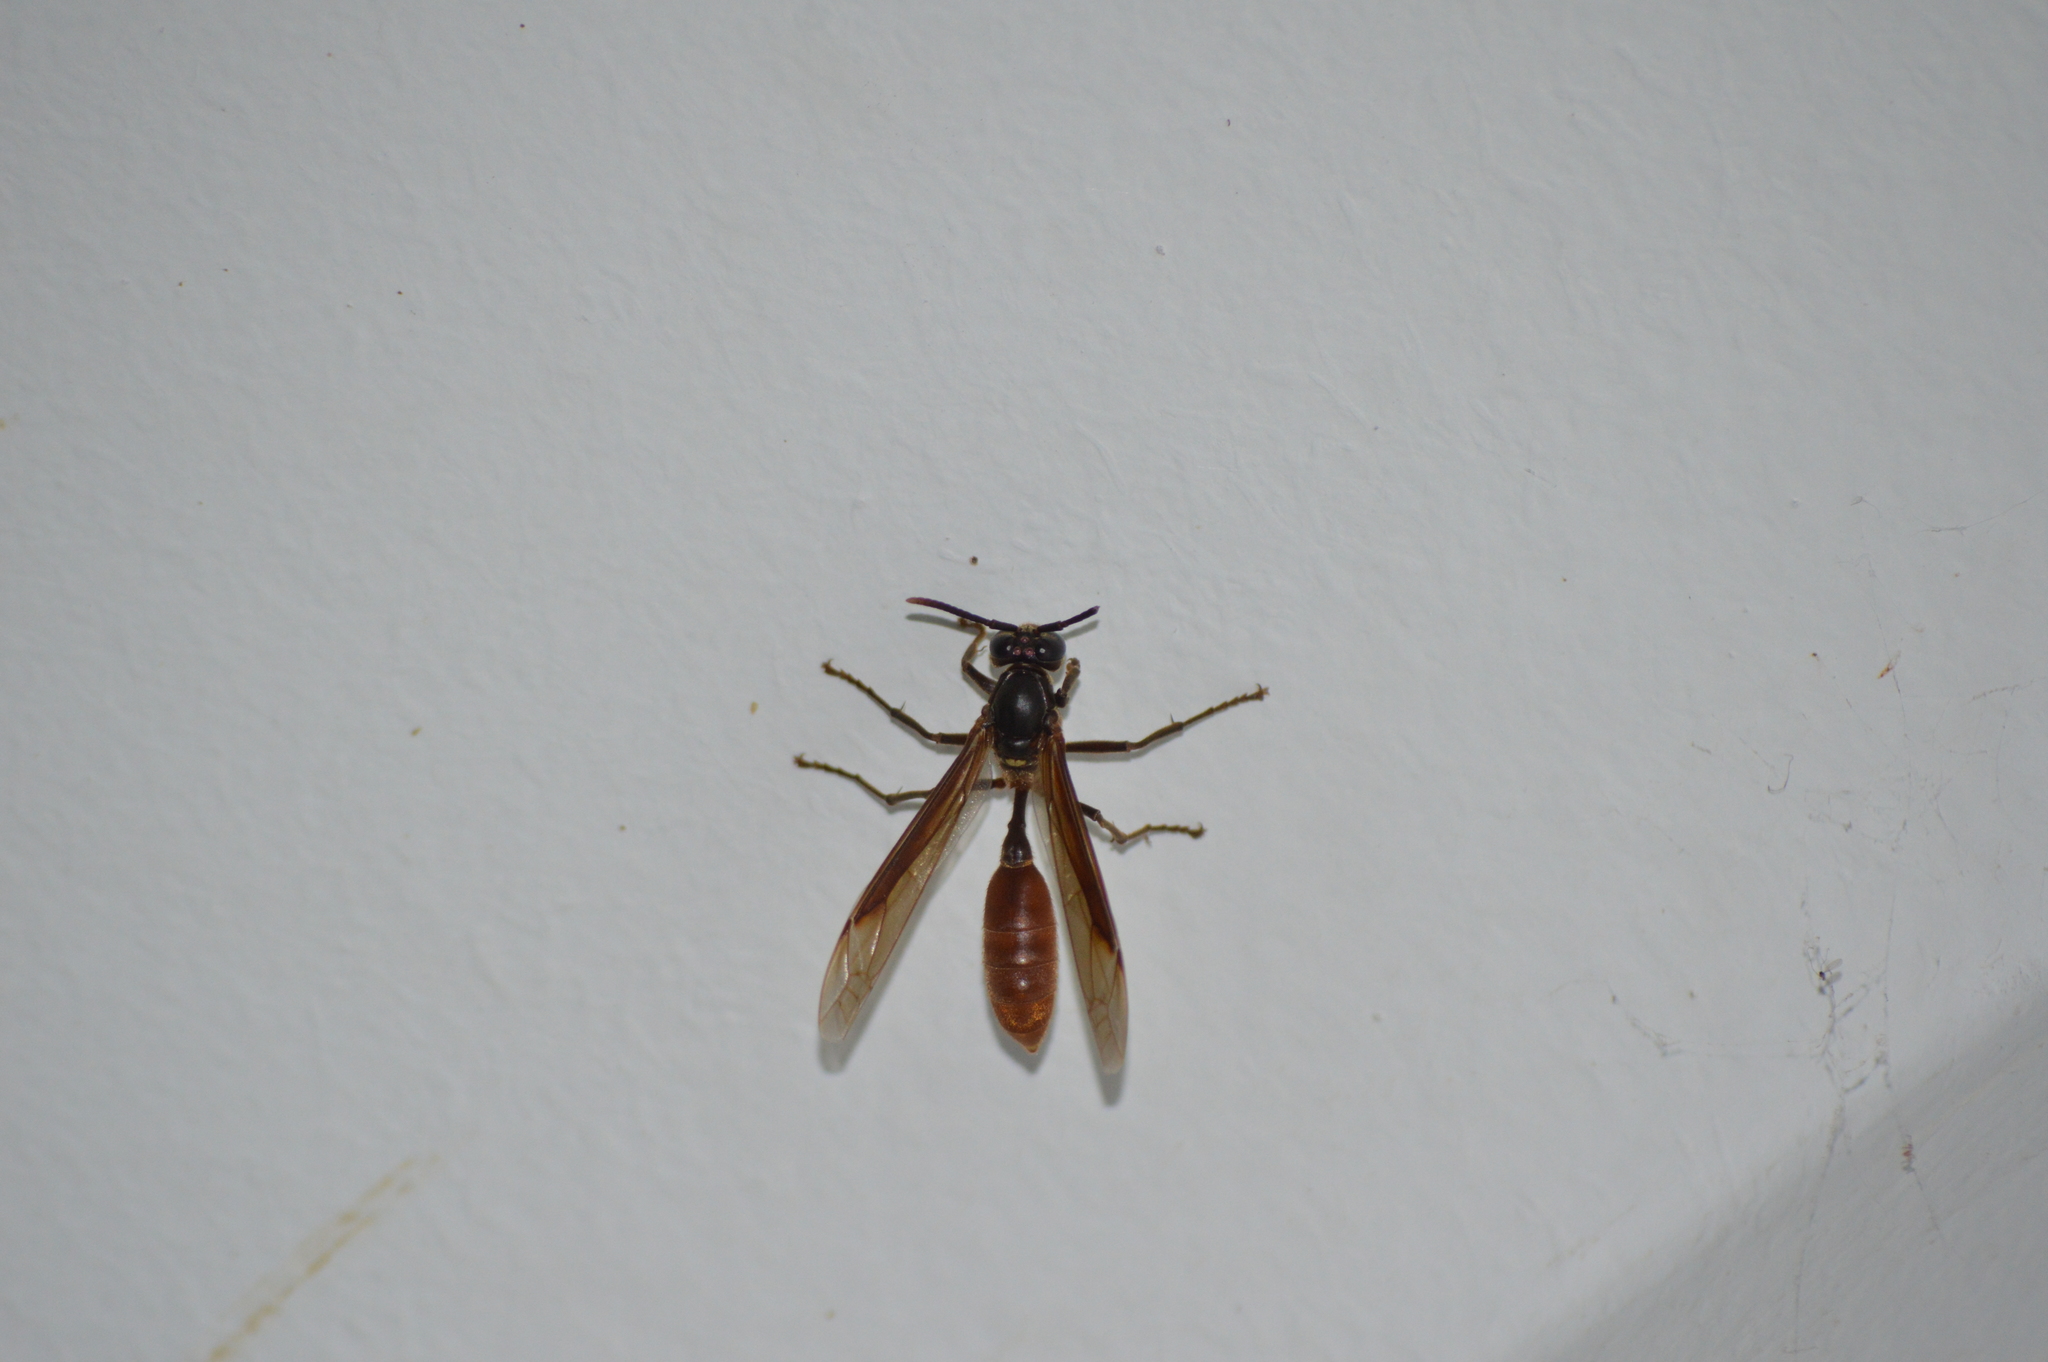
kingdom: Animalia
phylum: Arthropoda
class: Insecta
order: Hymenoptera
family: Vespidae
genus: Apoica
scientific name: Apoica thoracica
